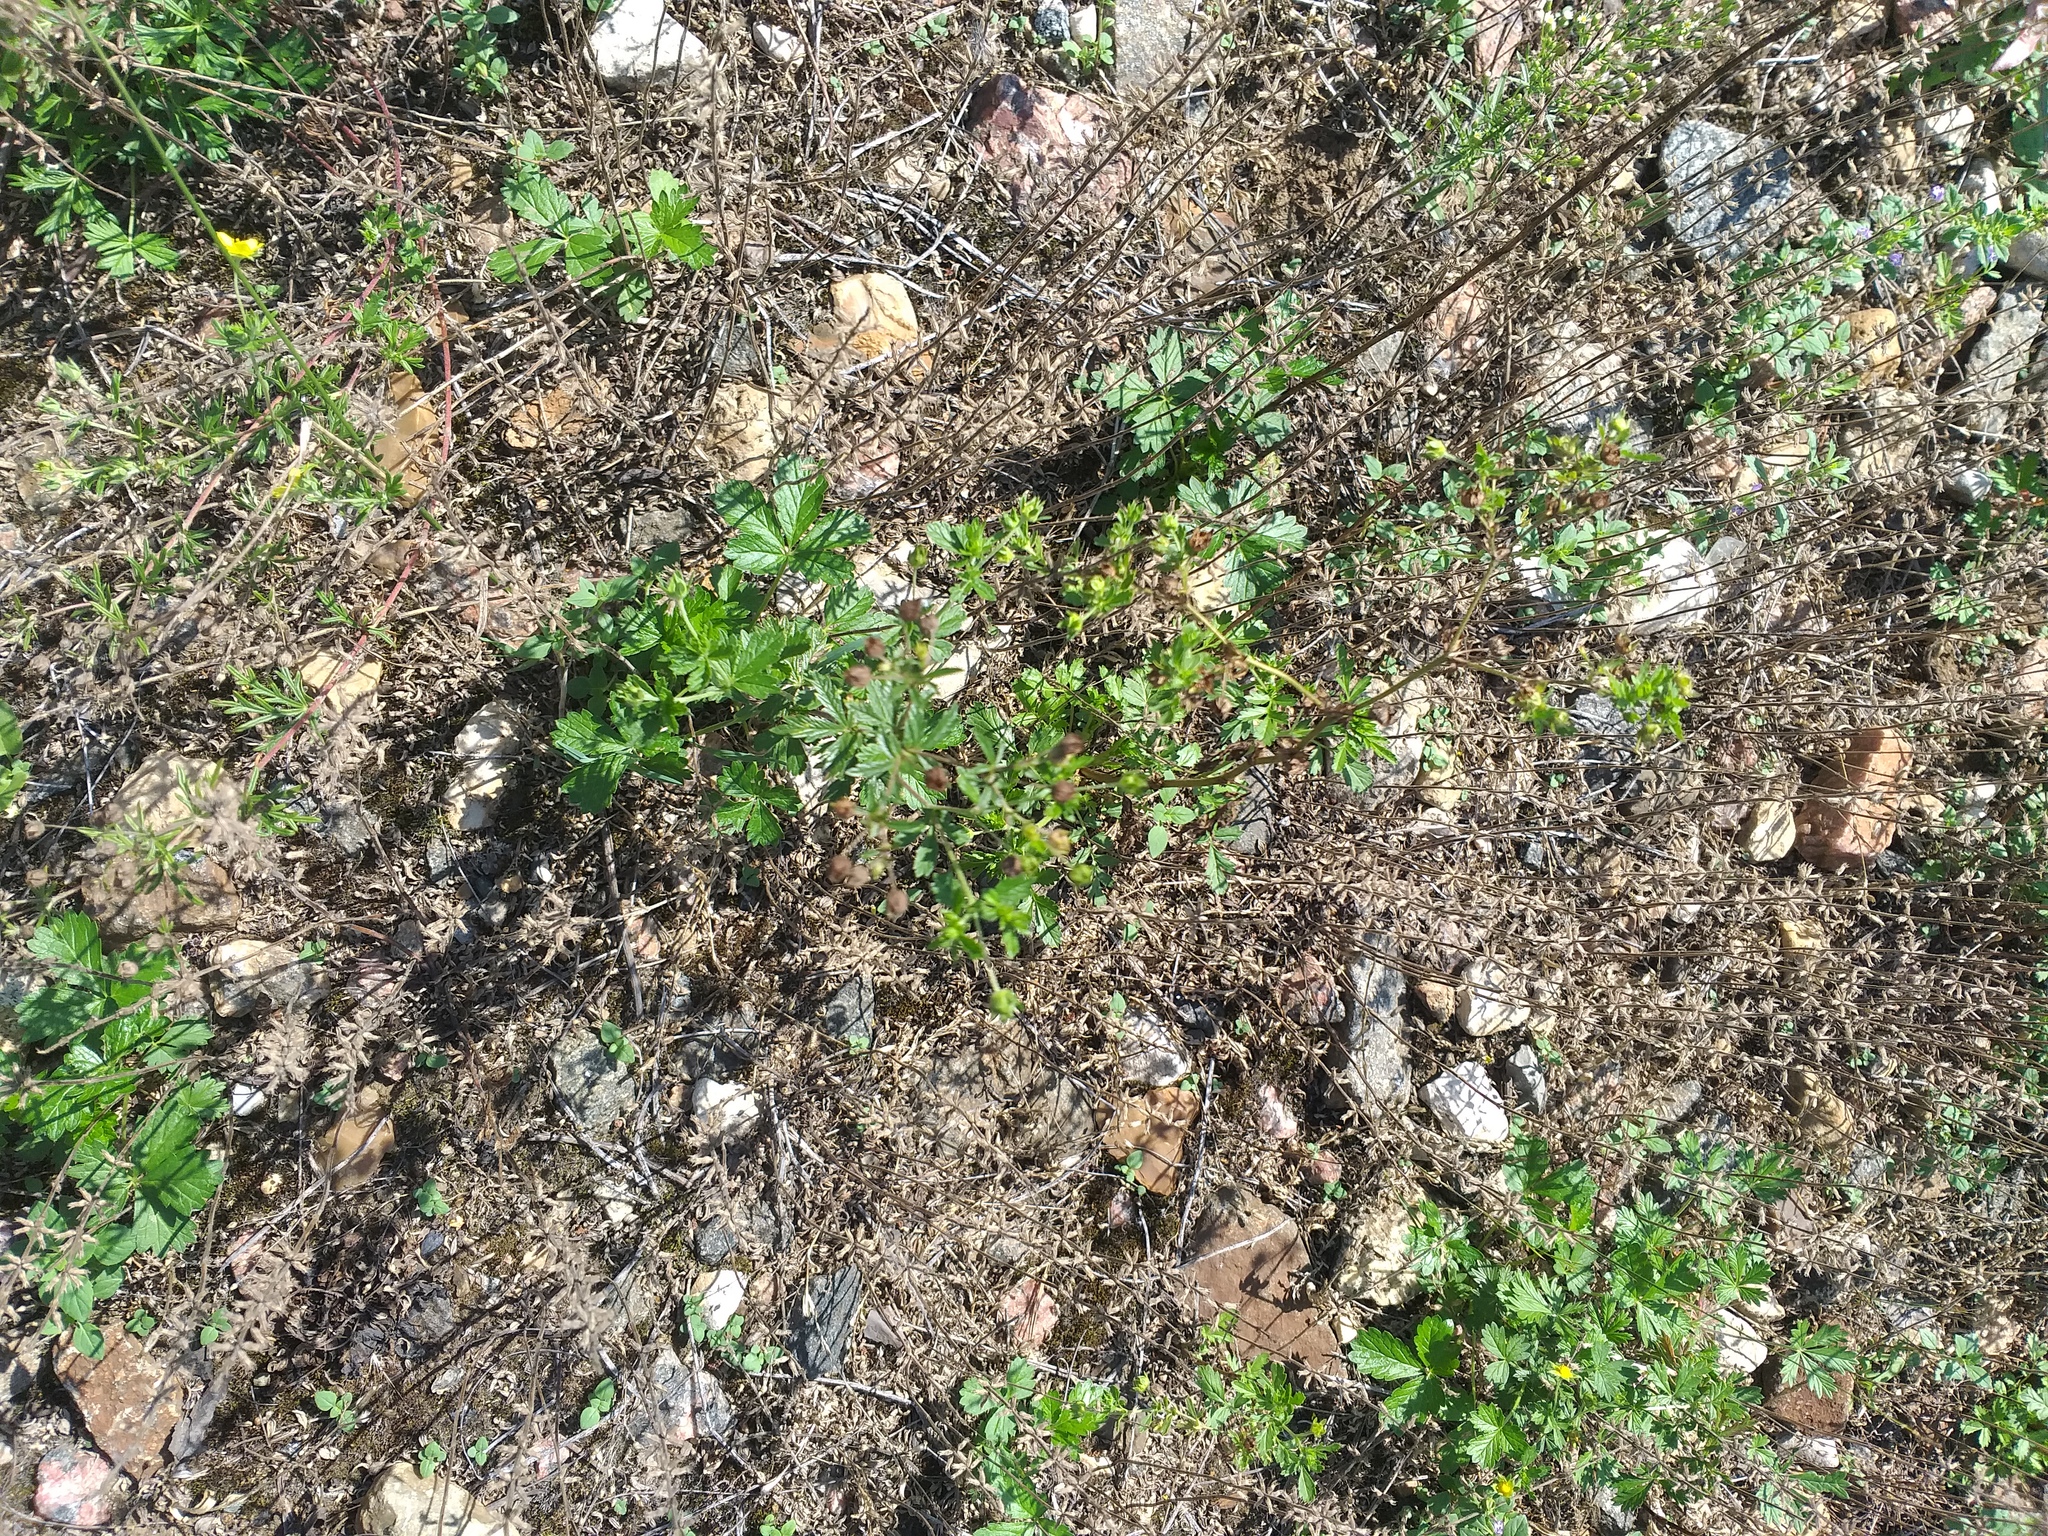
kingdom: Plantae
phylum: Tracheophyta
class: Magnoliopsida
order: Rosales
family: Rosaceae
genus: Potentilla
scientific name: Potentilla intermedia
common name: Downy cinquefoil
